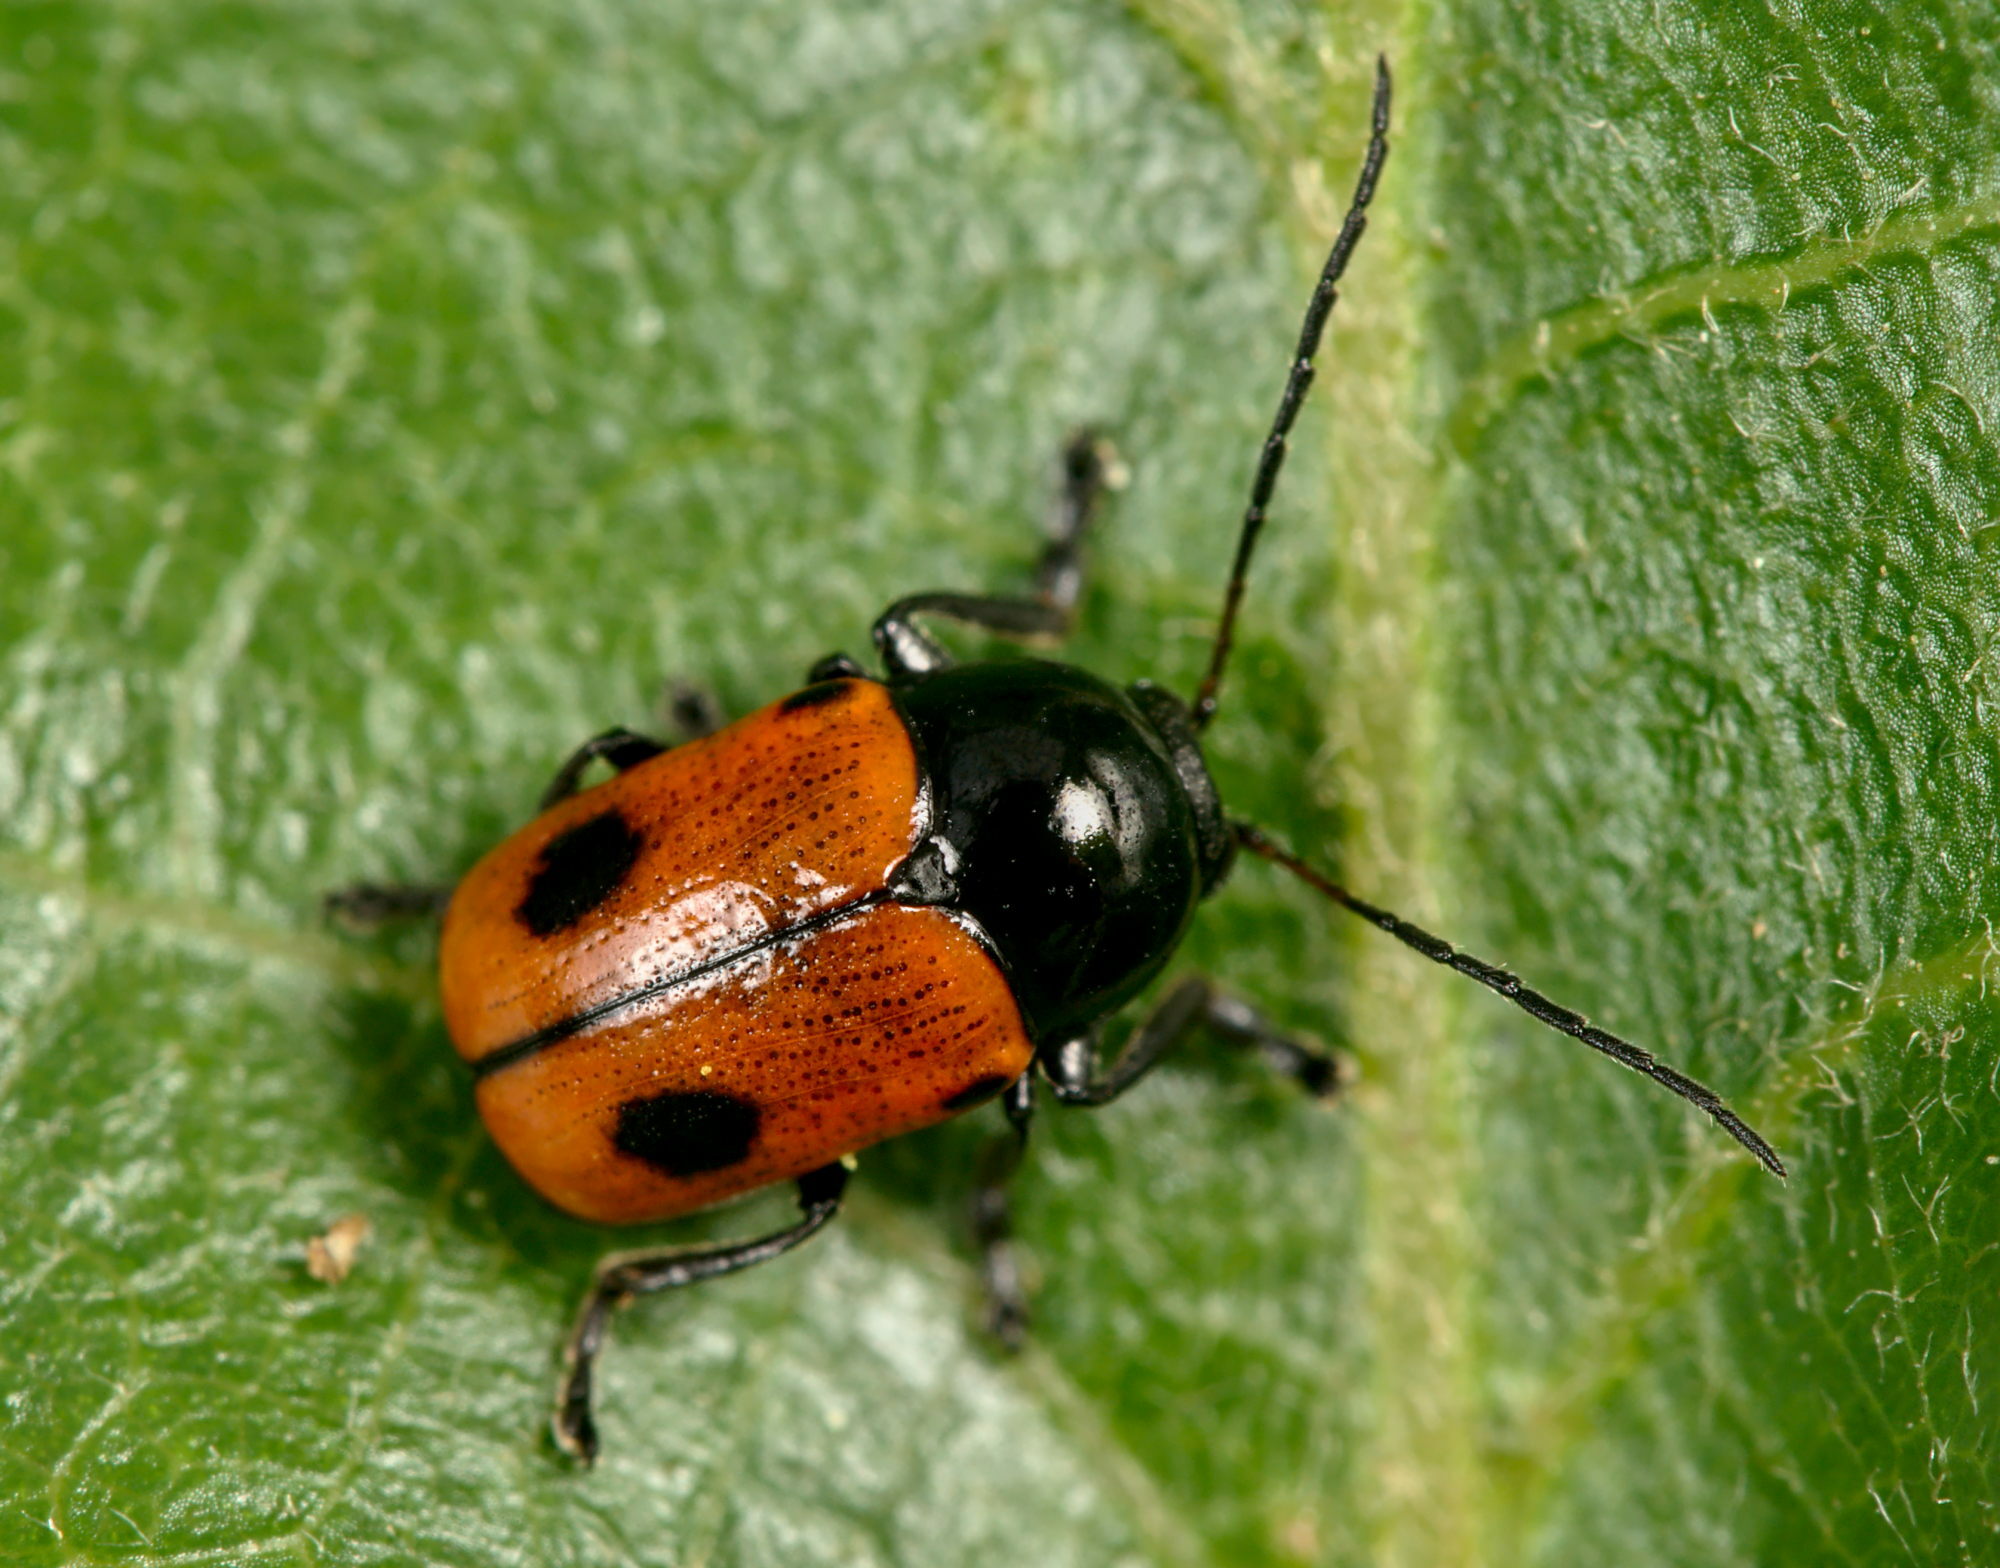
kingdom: Animalia
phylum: Arthropoda
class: Insecta
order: Coleoptera
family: Chrysomelidae
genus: Chiridopsis
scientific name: Chiridopsis bipunctata
